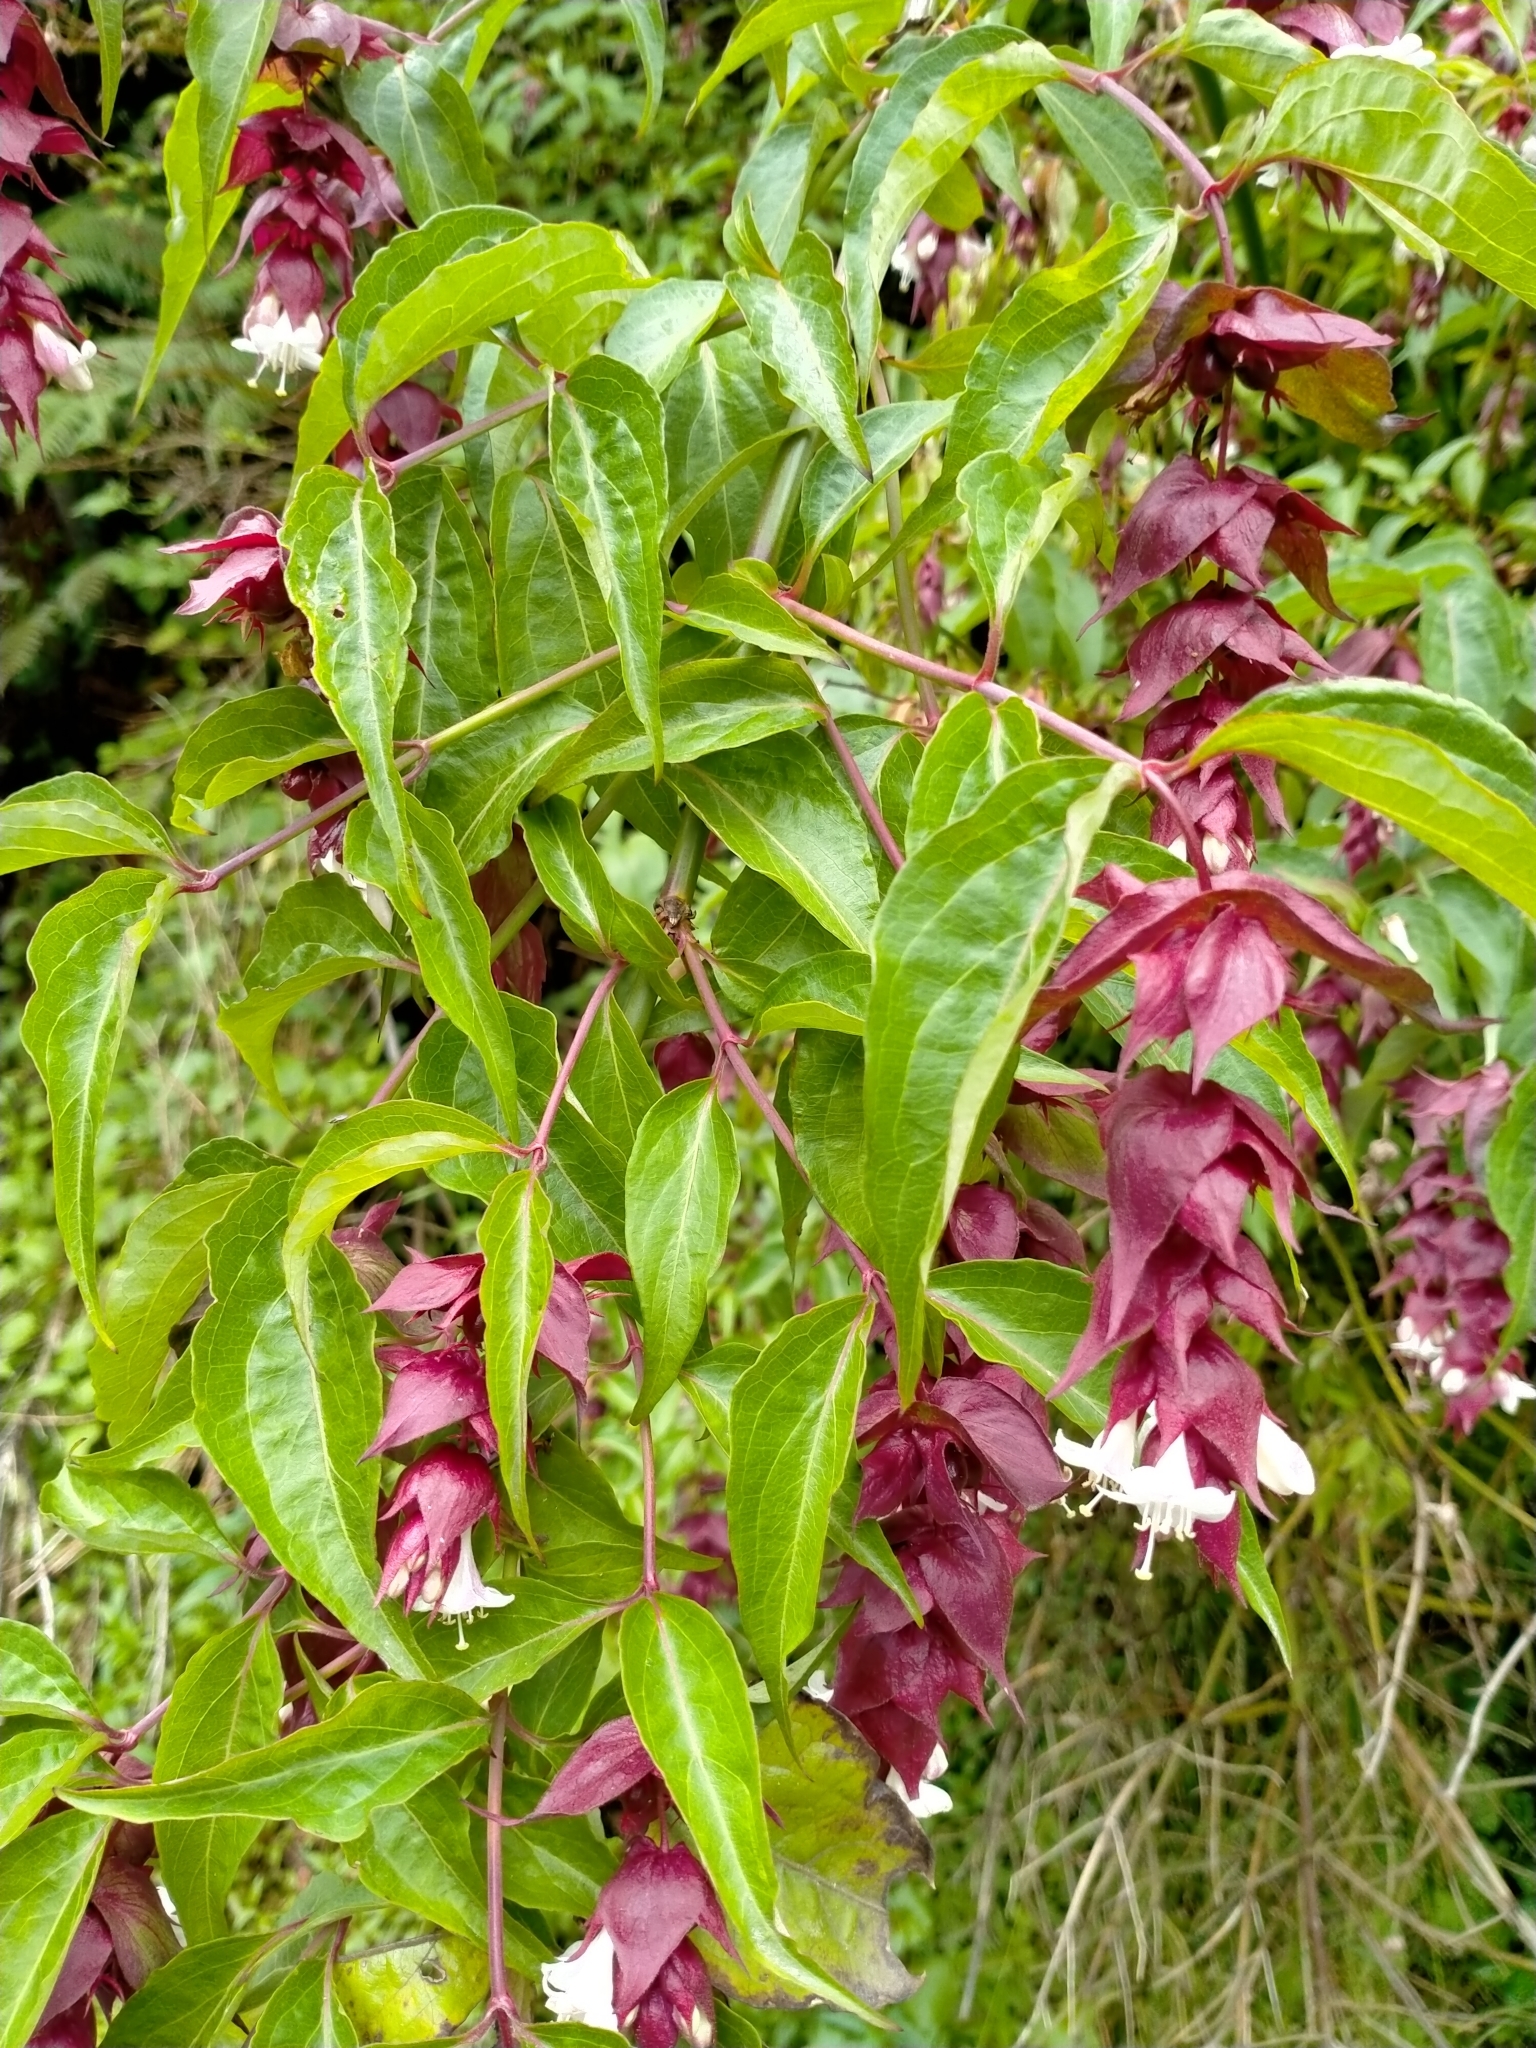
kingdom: Plantae
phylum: Tracheophyta
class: Magnoliopsida
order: Dipsacales
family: Caprifoliaceae
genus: Leycesteria
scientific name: Leycesteria formosa
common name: Himalayan honeysuckle
